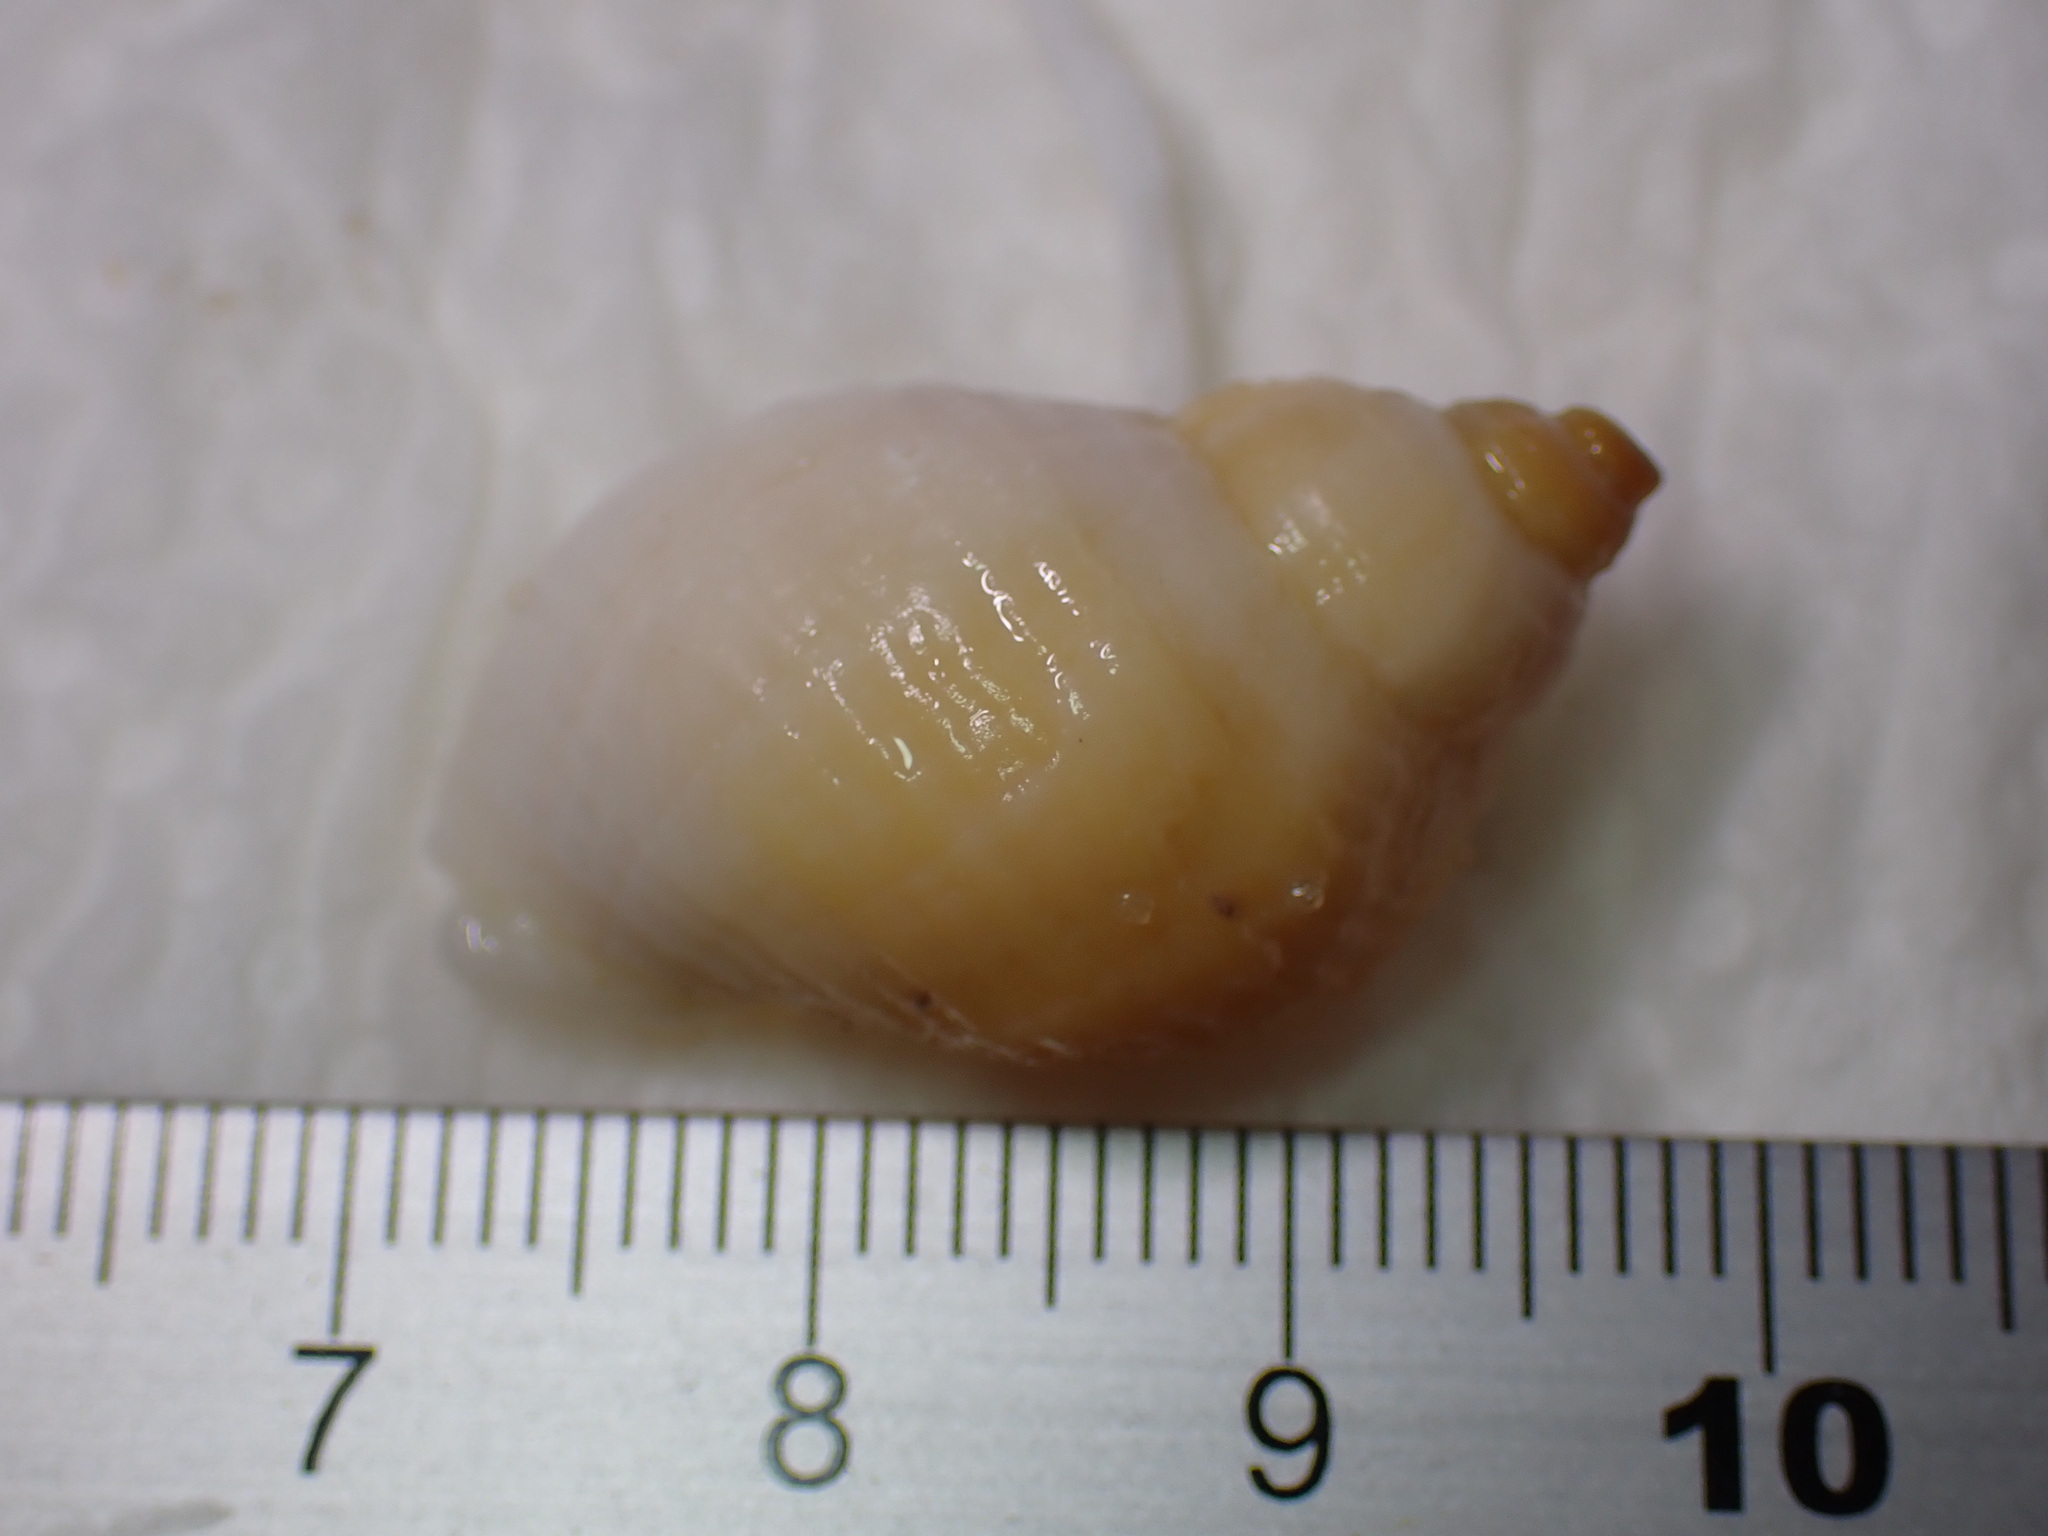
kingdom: Animalia
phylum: Mollusca
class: Gastropoda
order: Neogastropoda
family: Muricidae
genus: Nucella
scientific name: Nucella lapillus
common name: Dog whelk
